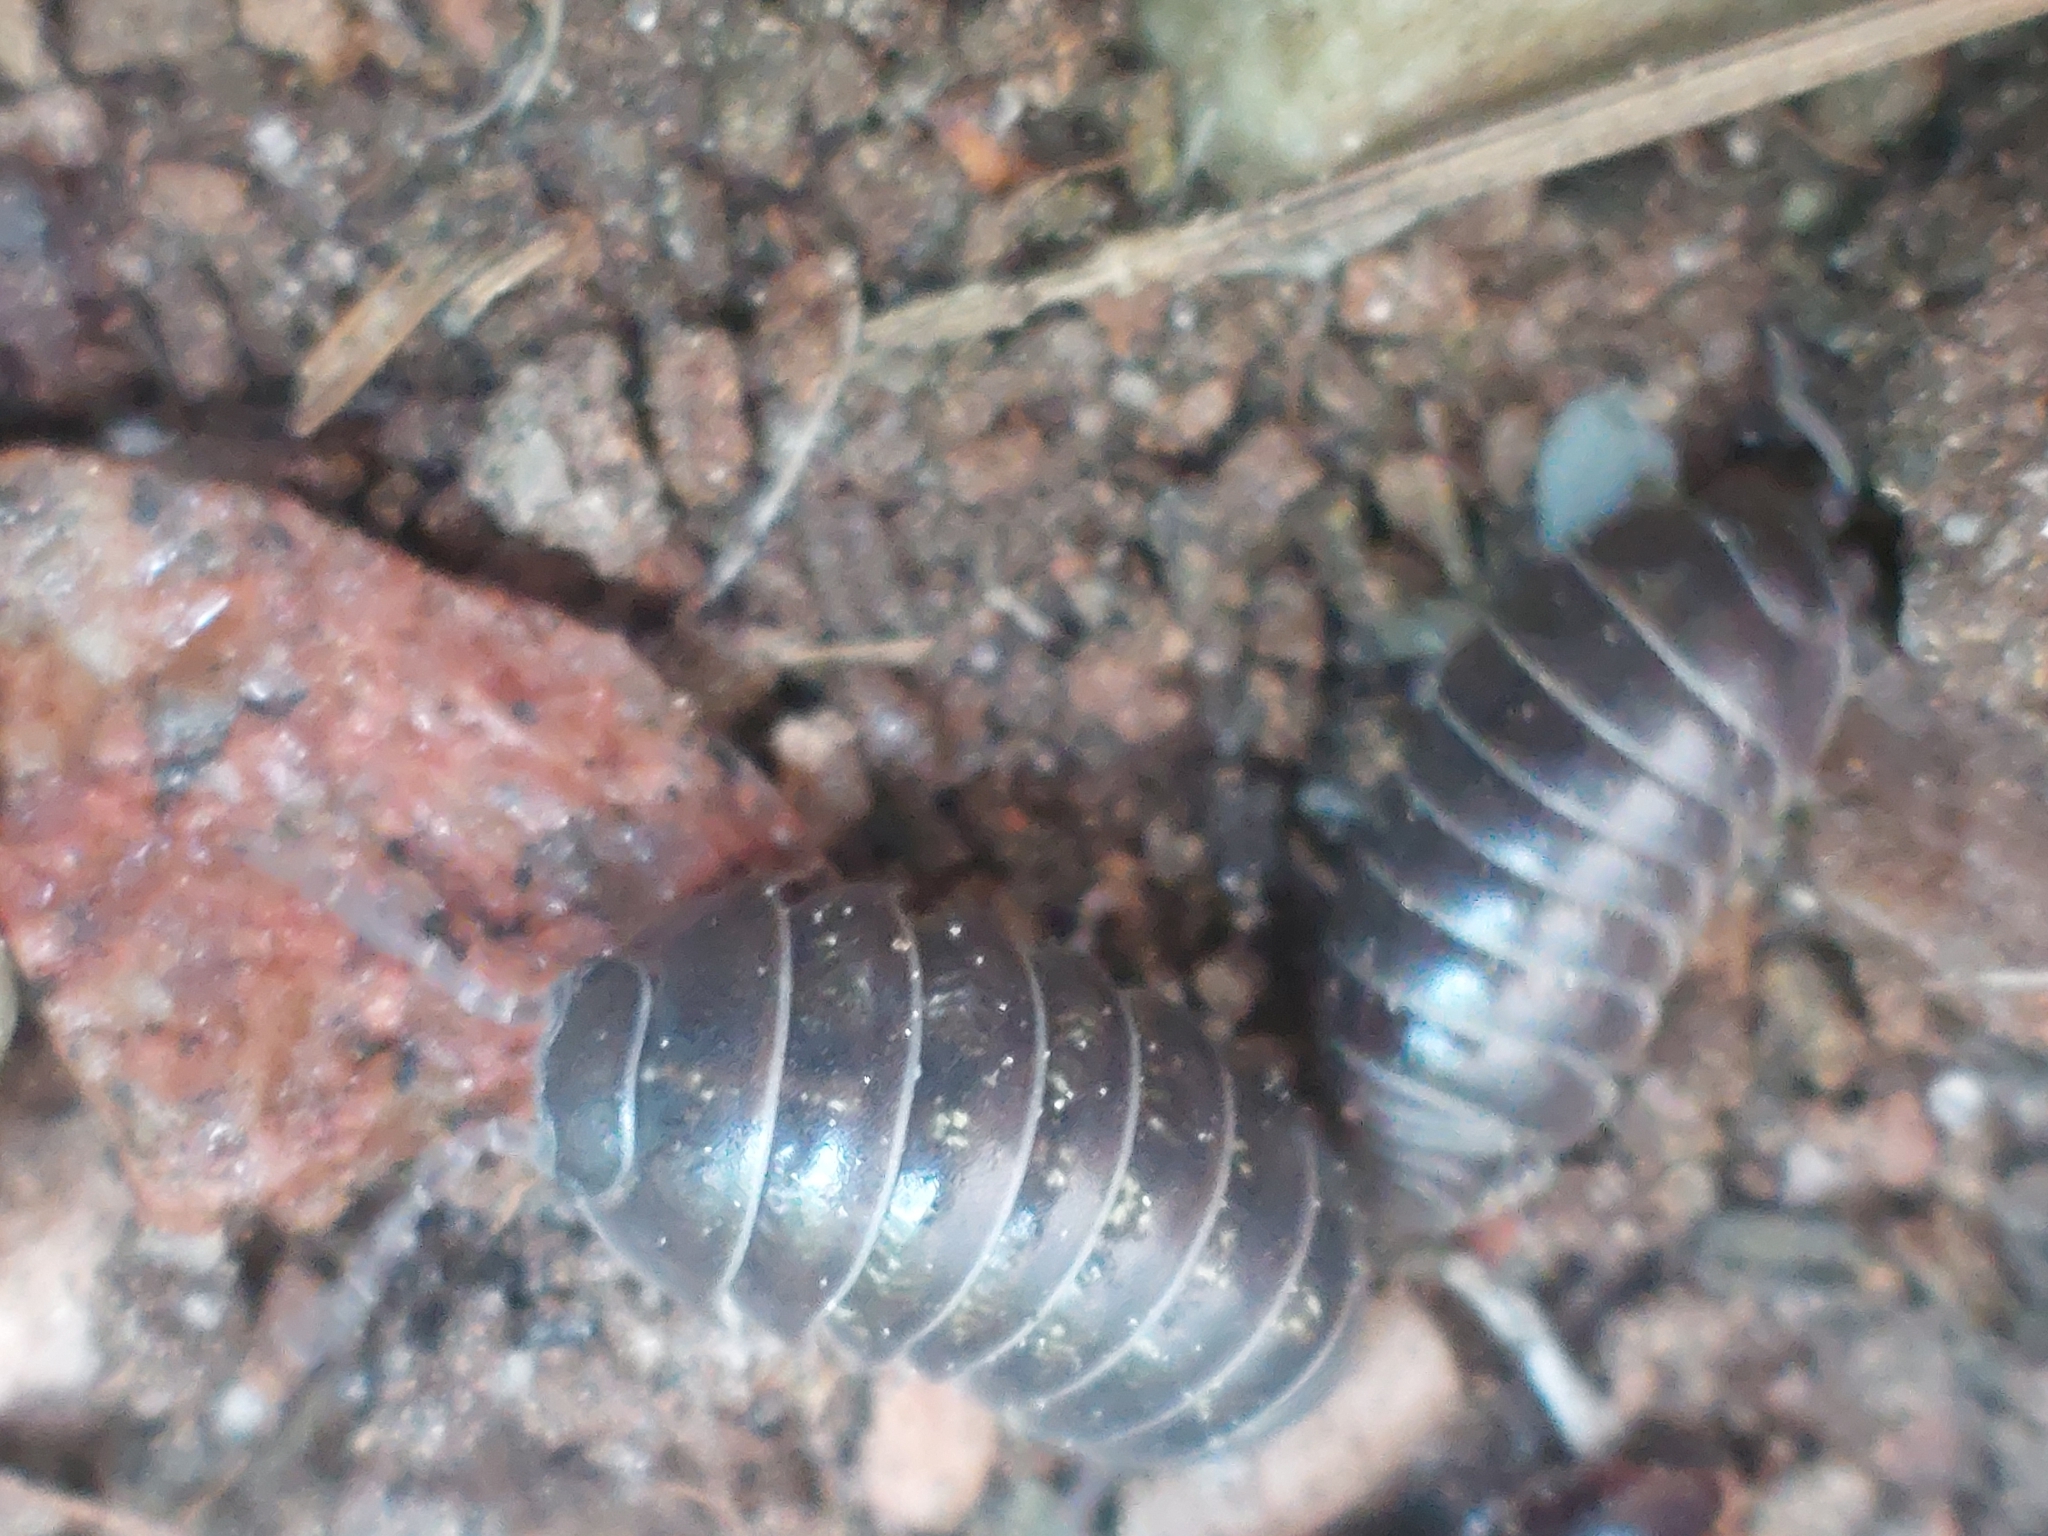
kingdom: Animalia
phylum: Arthropoda
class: Malacostraca
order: Isopoda
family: Armadillidiidae
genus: Armadillidium
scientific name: Armadillidium vulgare
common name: Common pill woodlouse
